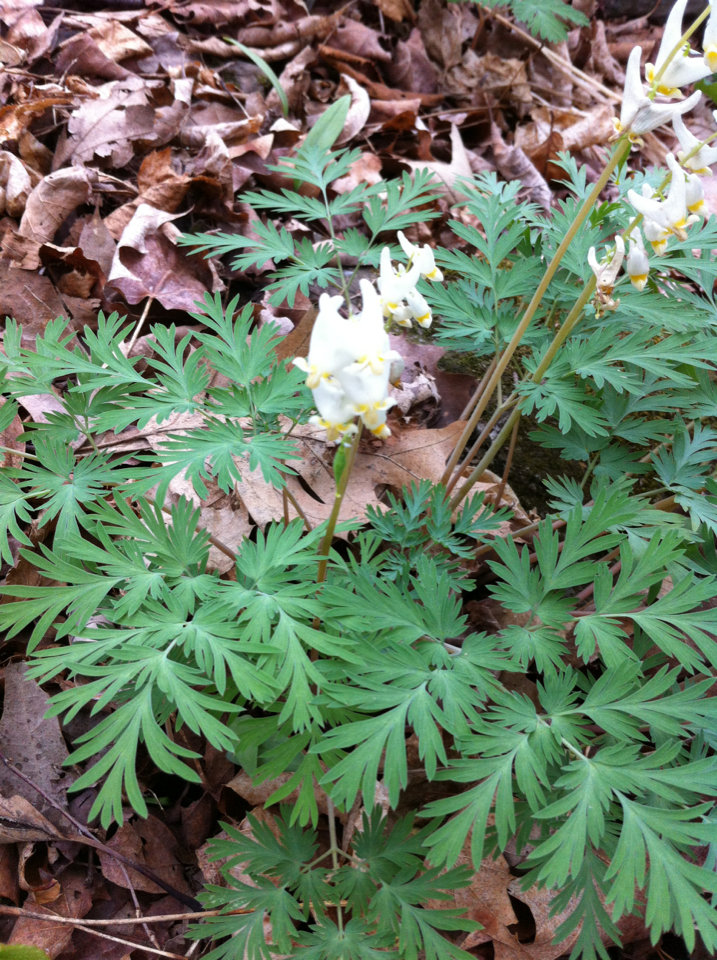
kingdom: Plantae
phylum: Tracheophyta
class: Magnoliopsida
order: Ranunculales
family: Papaveraceae
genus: Dicentra
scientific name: Dicentra cucullaria
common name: Dutchman's breeches
